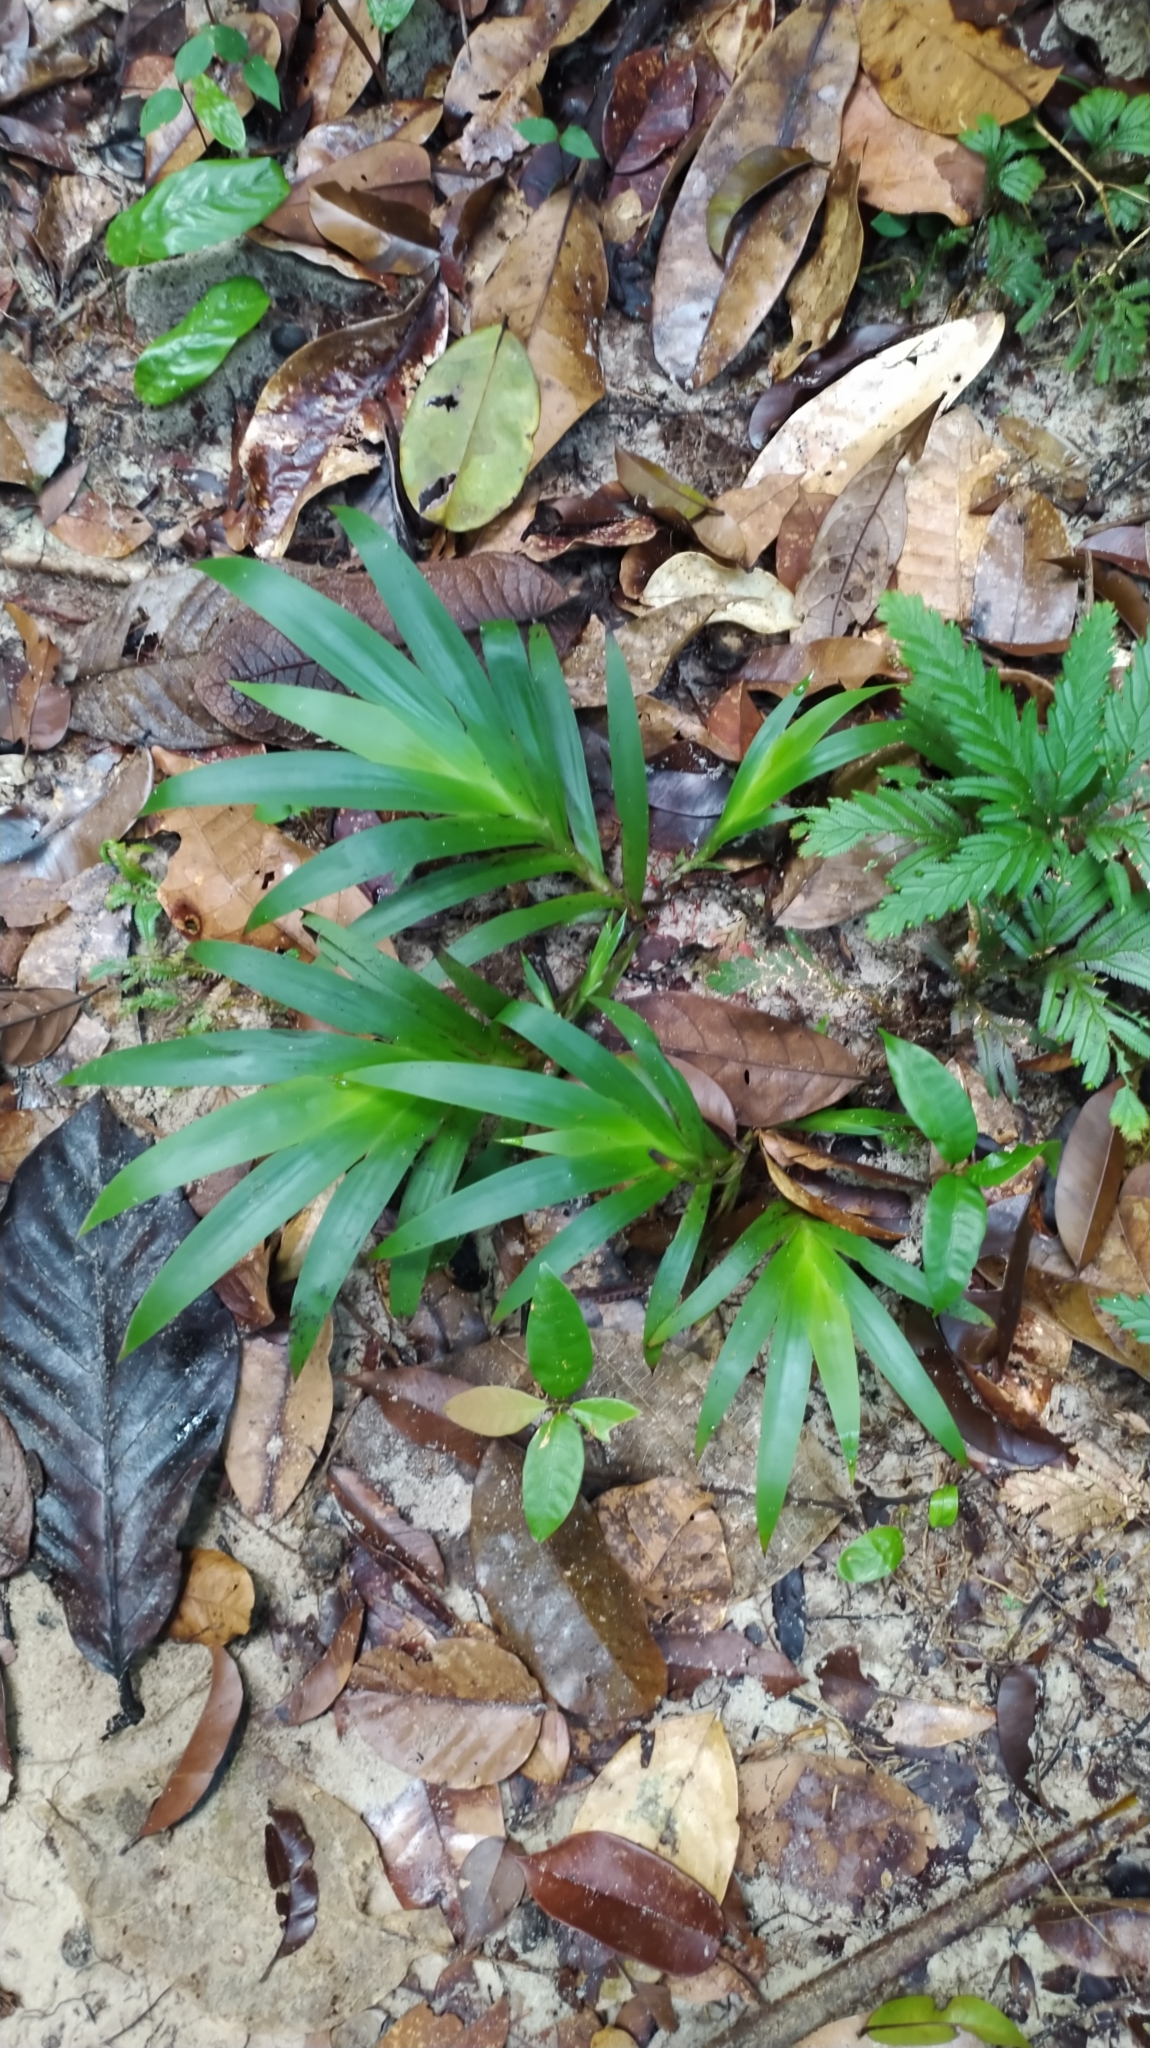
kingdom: Plantae
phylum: Tracheophyta
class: Liliopsida
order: Commelinales
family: Haemodoraceae
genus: Xiphidium
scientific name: Xiphidium caeruleum
